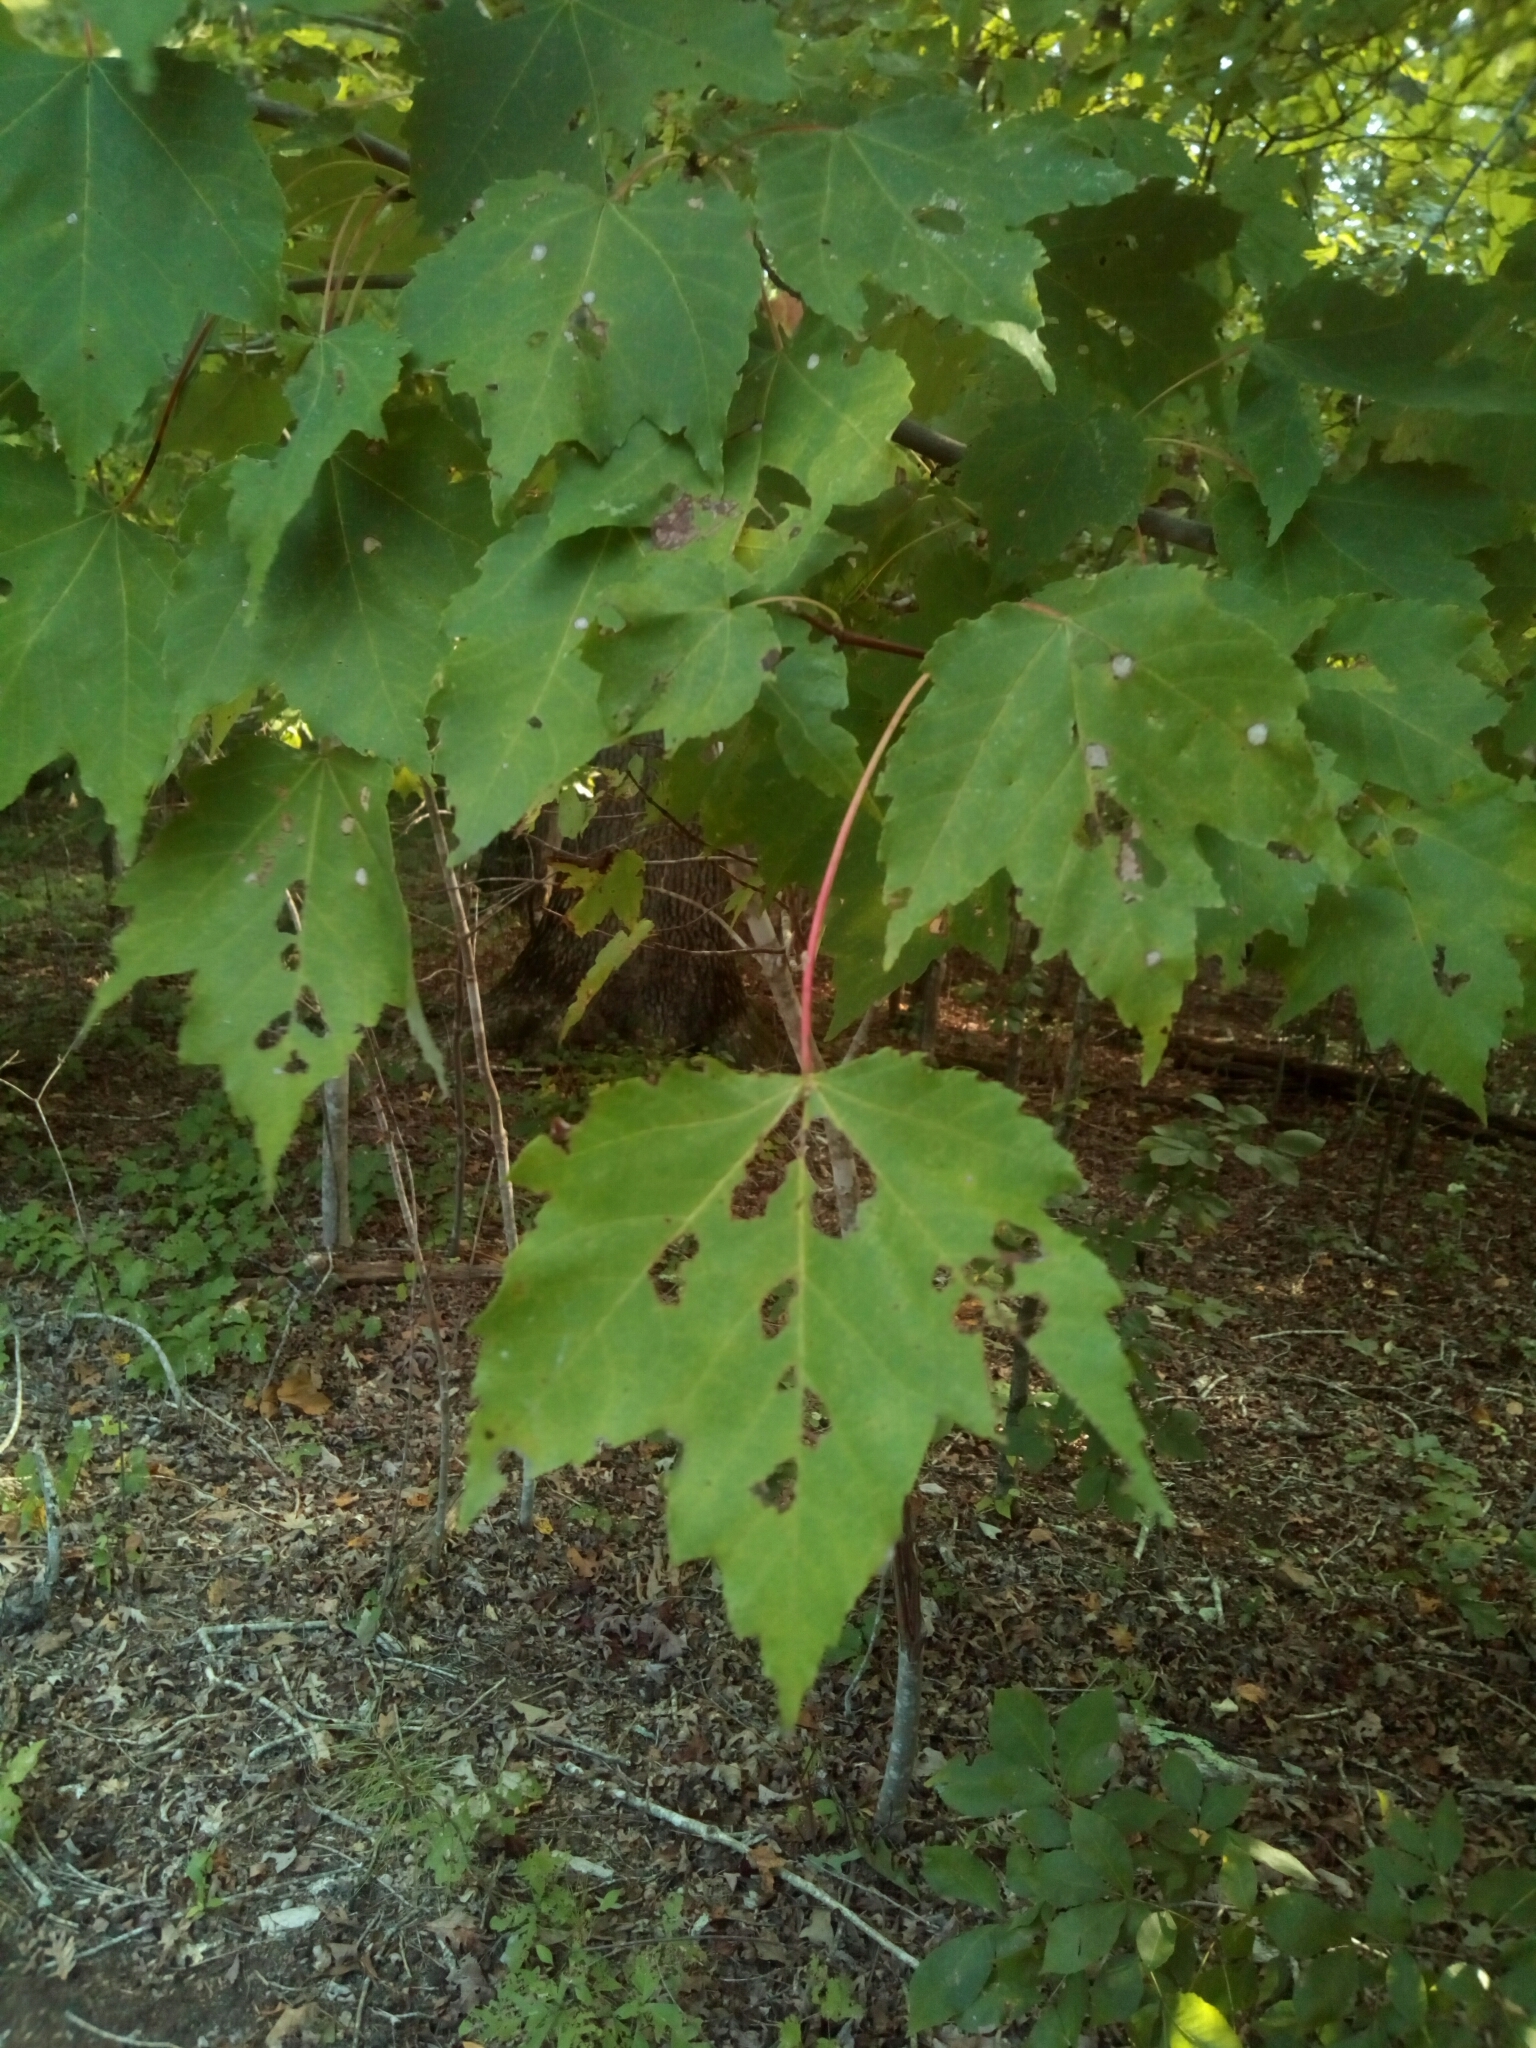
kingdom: Plantae
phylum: Tracheophyta
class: Magnoliopsida
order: Sapindales
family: Sapindaceae
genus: Acer
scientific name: Acer rubrum
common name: Red maple
